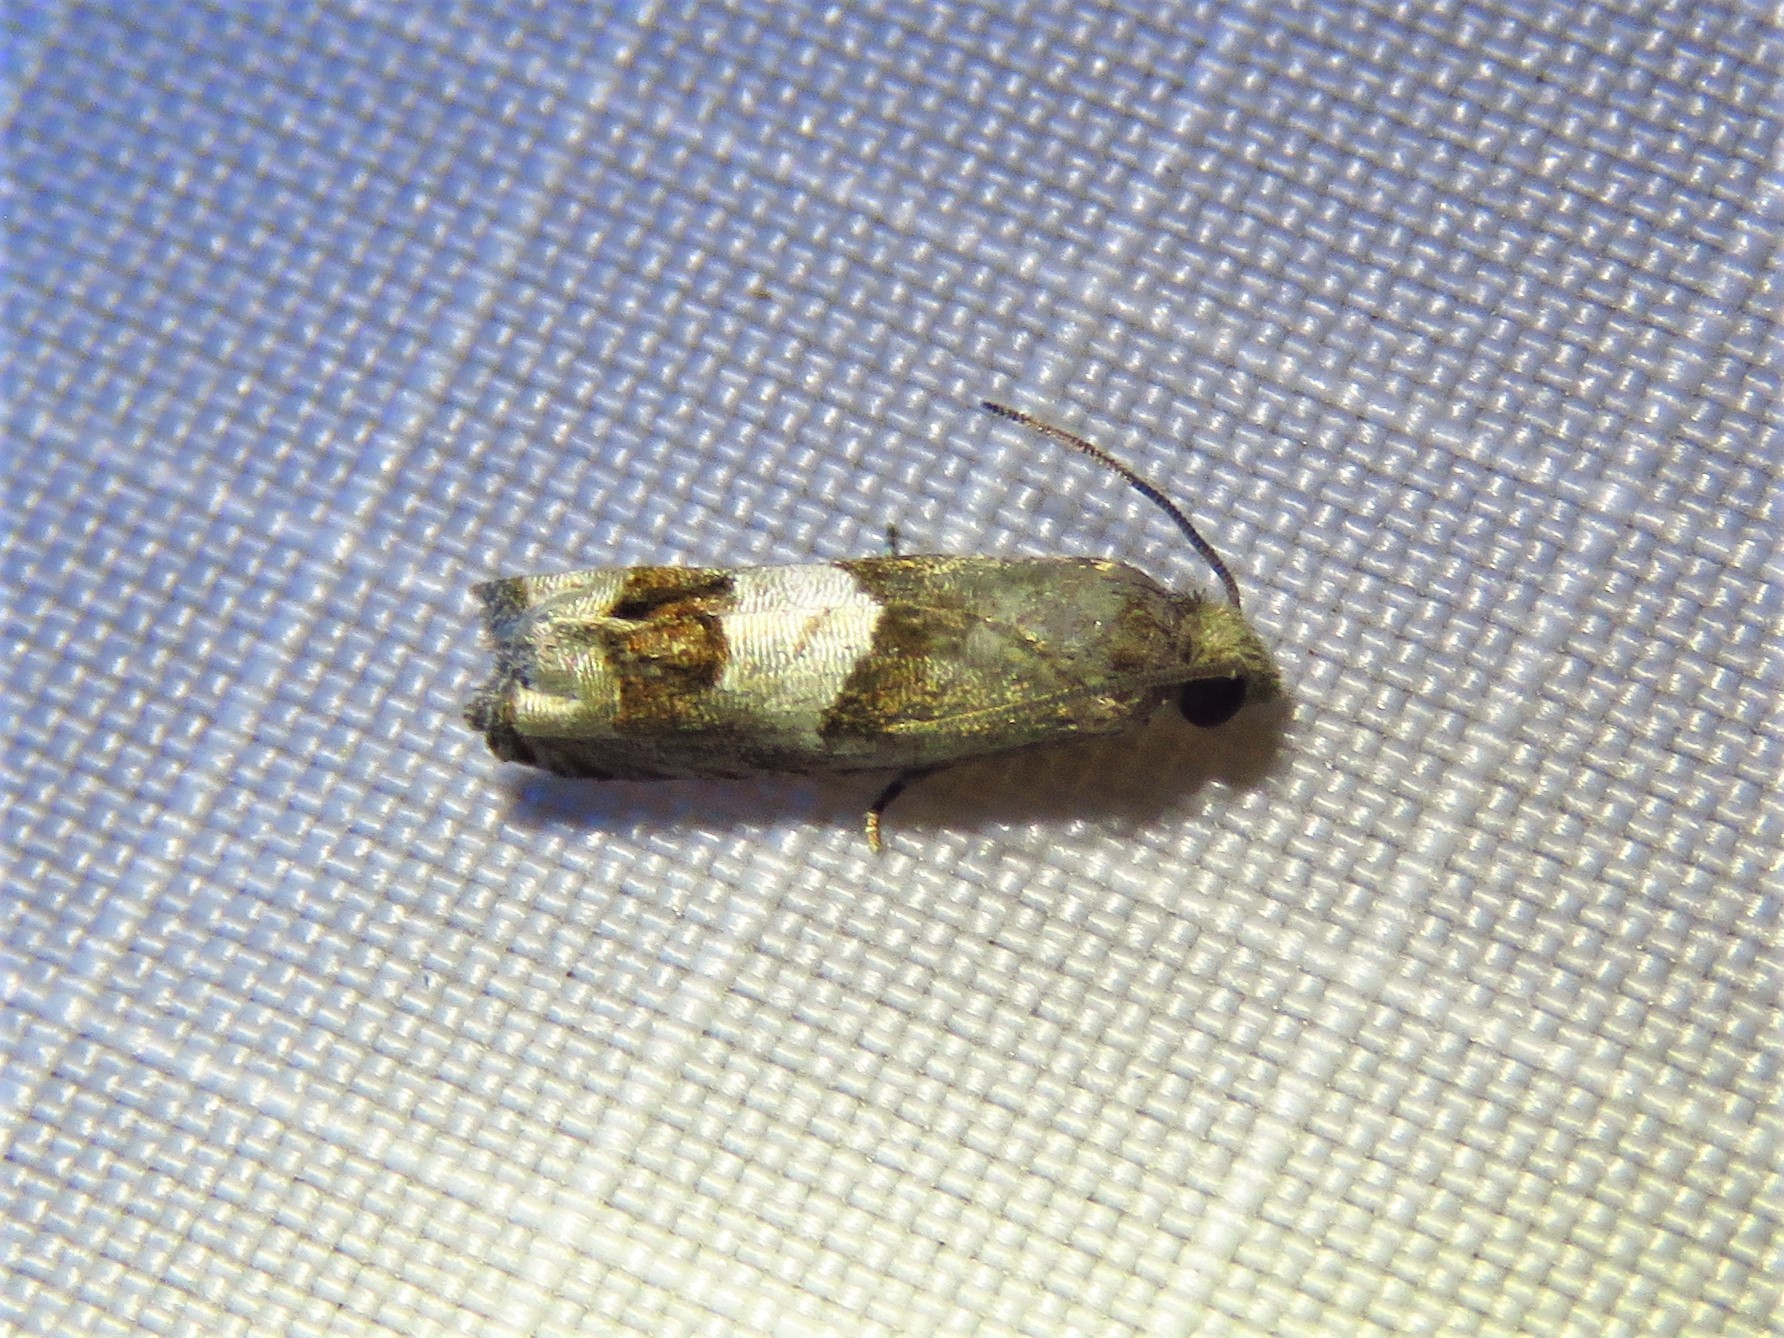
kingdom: Animalia
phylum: Arthropoda
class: Insecta
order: Lepidoptera
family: Tortricidae
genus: Epiblema
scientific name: Epiblema boxcana
